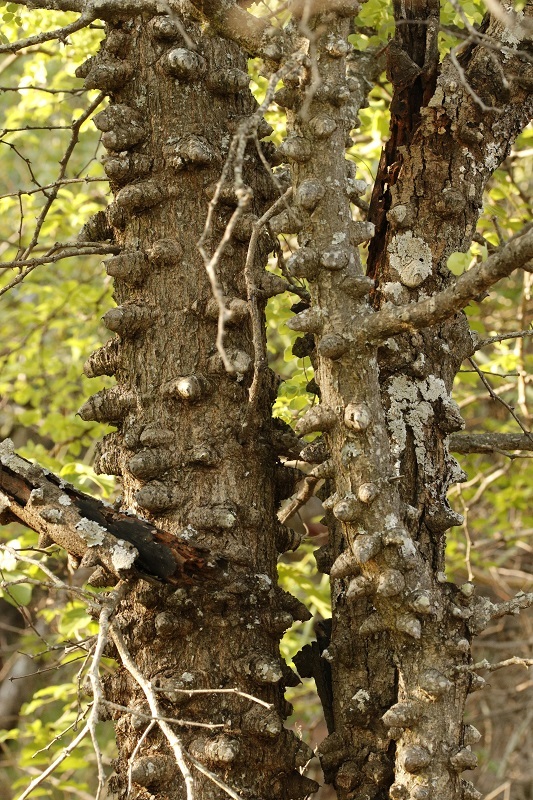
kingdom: Plantae
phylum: Tracheophyta
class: Magnoliopsida
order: Fabales
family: Fabaceae
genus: Senegalia
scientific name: Senegalia nigrescens
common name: Knobthorn
